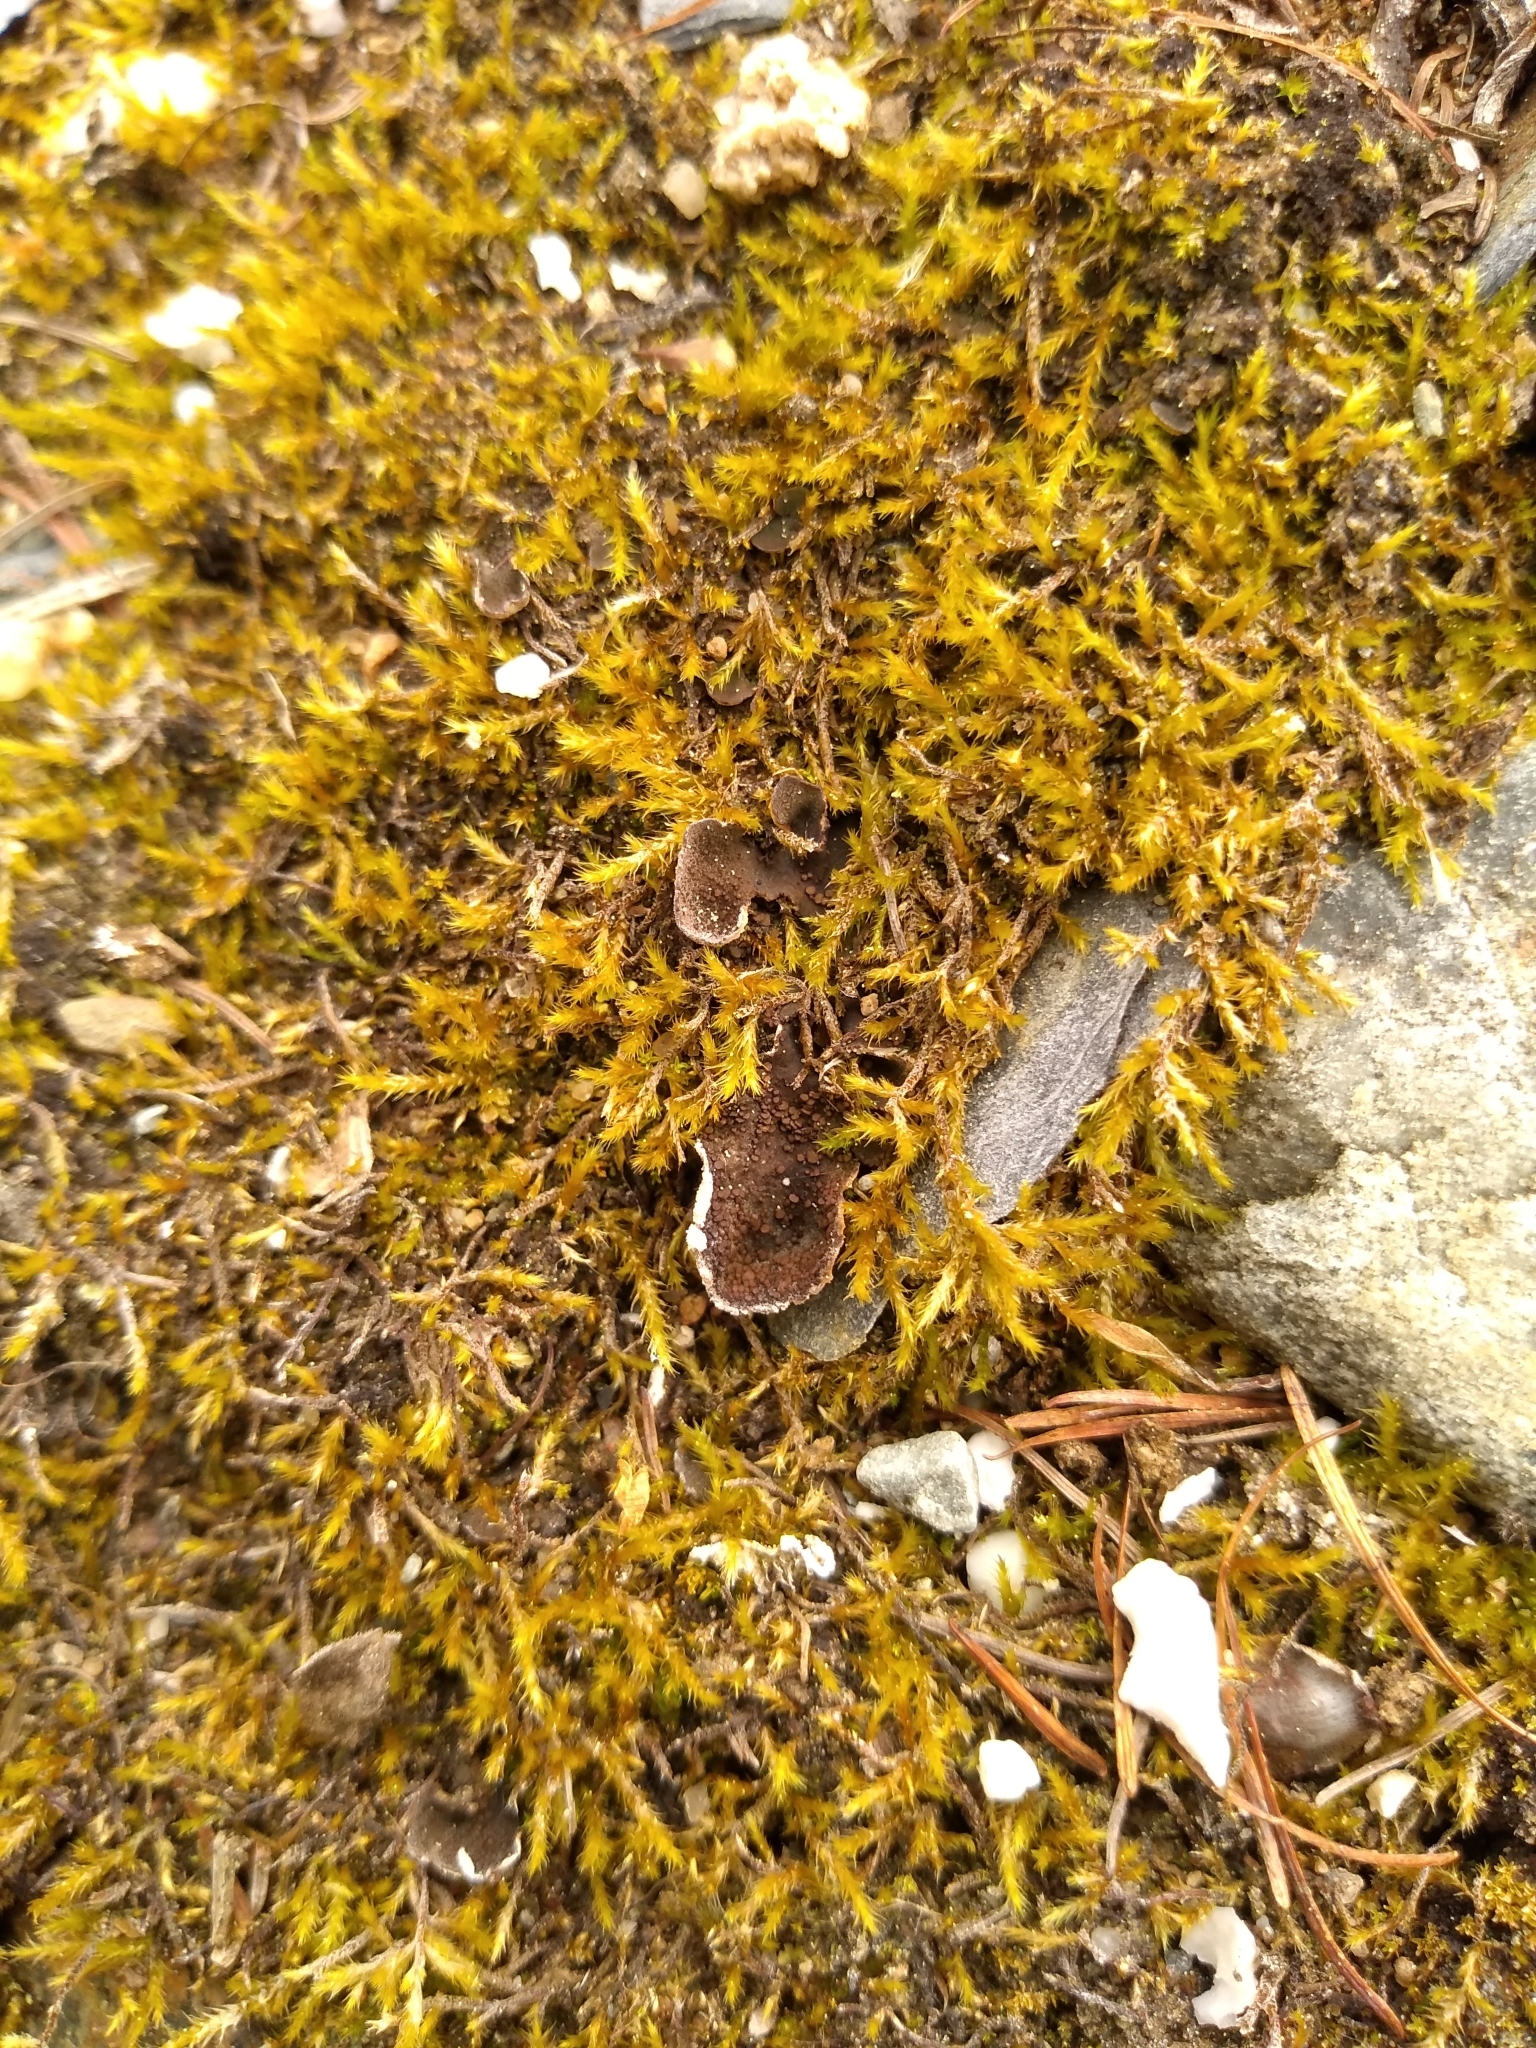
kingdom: Fungi
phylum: Ascomycota
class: Lecanoromycetes
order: Peltigerales
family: Peltigeraceae
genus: Peltigera
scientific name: Peltigera lepidophora
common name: Ear-lobed dog-lichen
